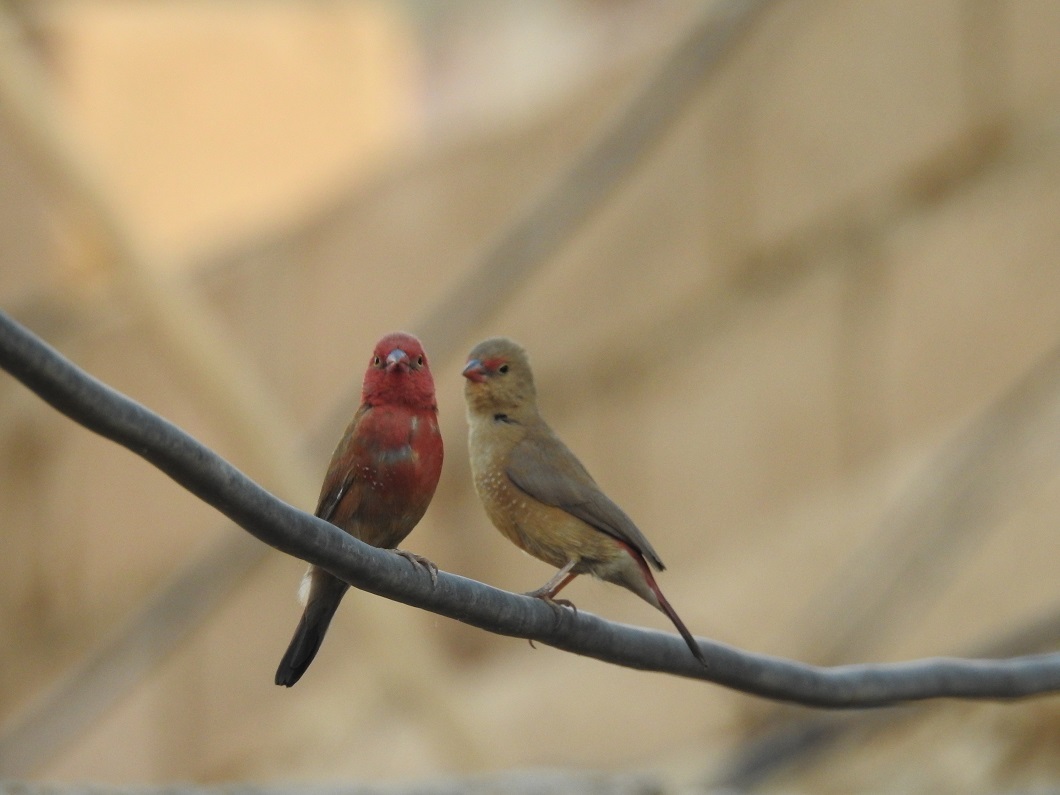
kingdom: Animalia
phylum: Chordata
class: Aves
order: Passeriformes
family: Estrildidae
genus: Lagonosticta
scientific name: Lagonosticta senegala
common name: Red-billed firefinch
